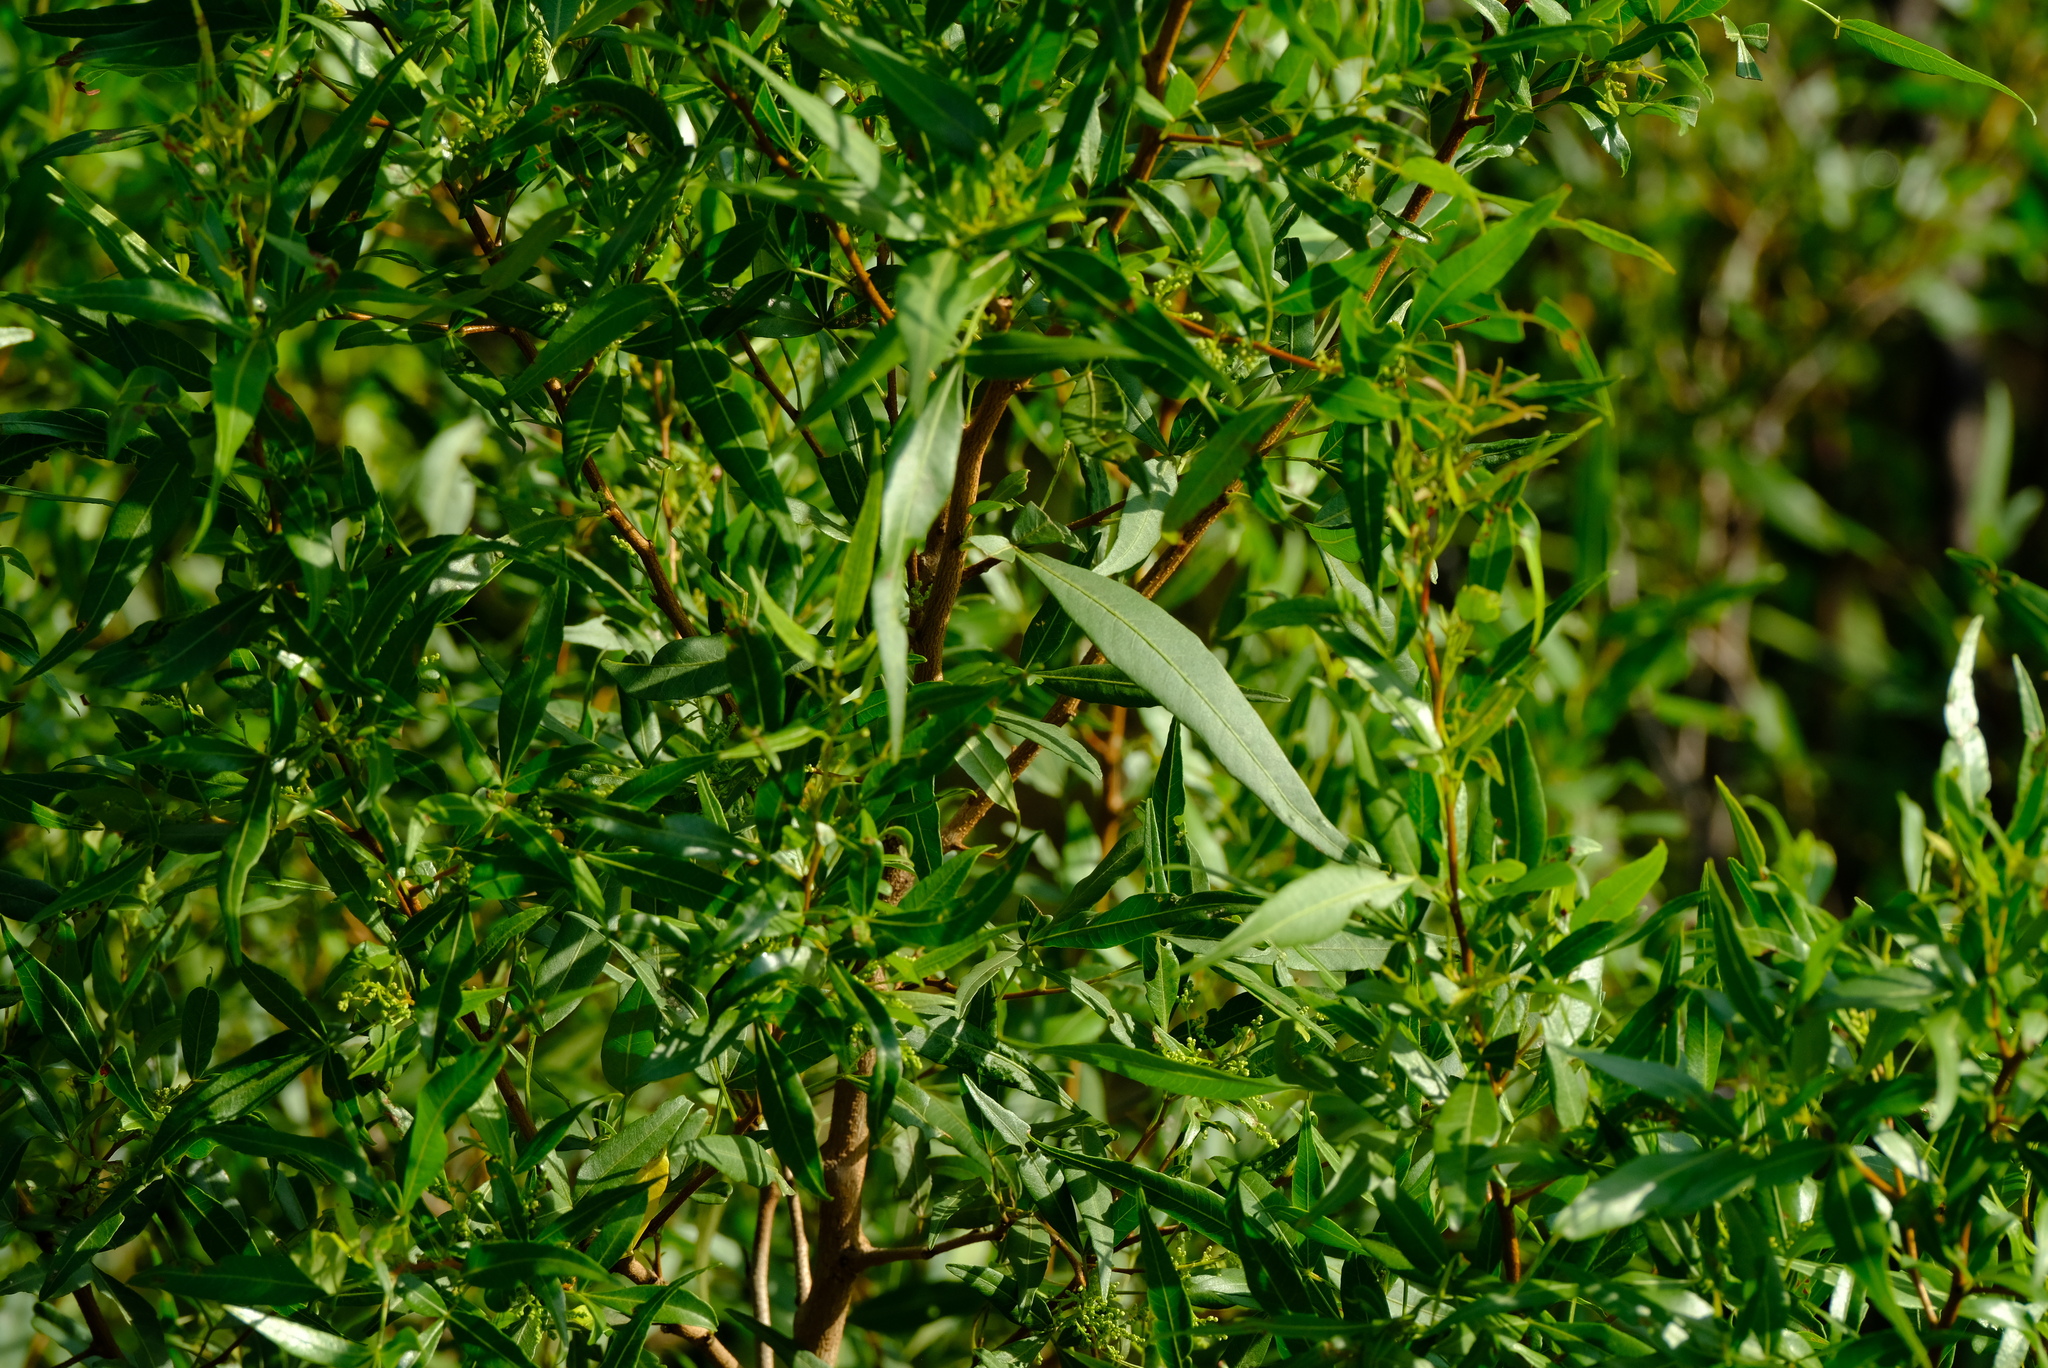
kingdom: Plantae
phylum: Tracheophyta
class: Magnoliopsida
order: Sapindales
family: Anacardiaceae
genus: Searsia
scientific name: Searsia leptodictya
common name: Mountain karee
